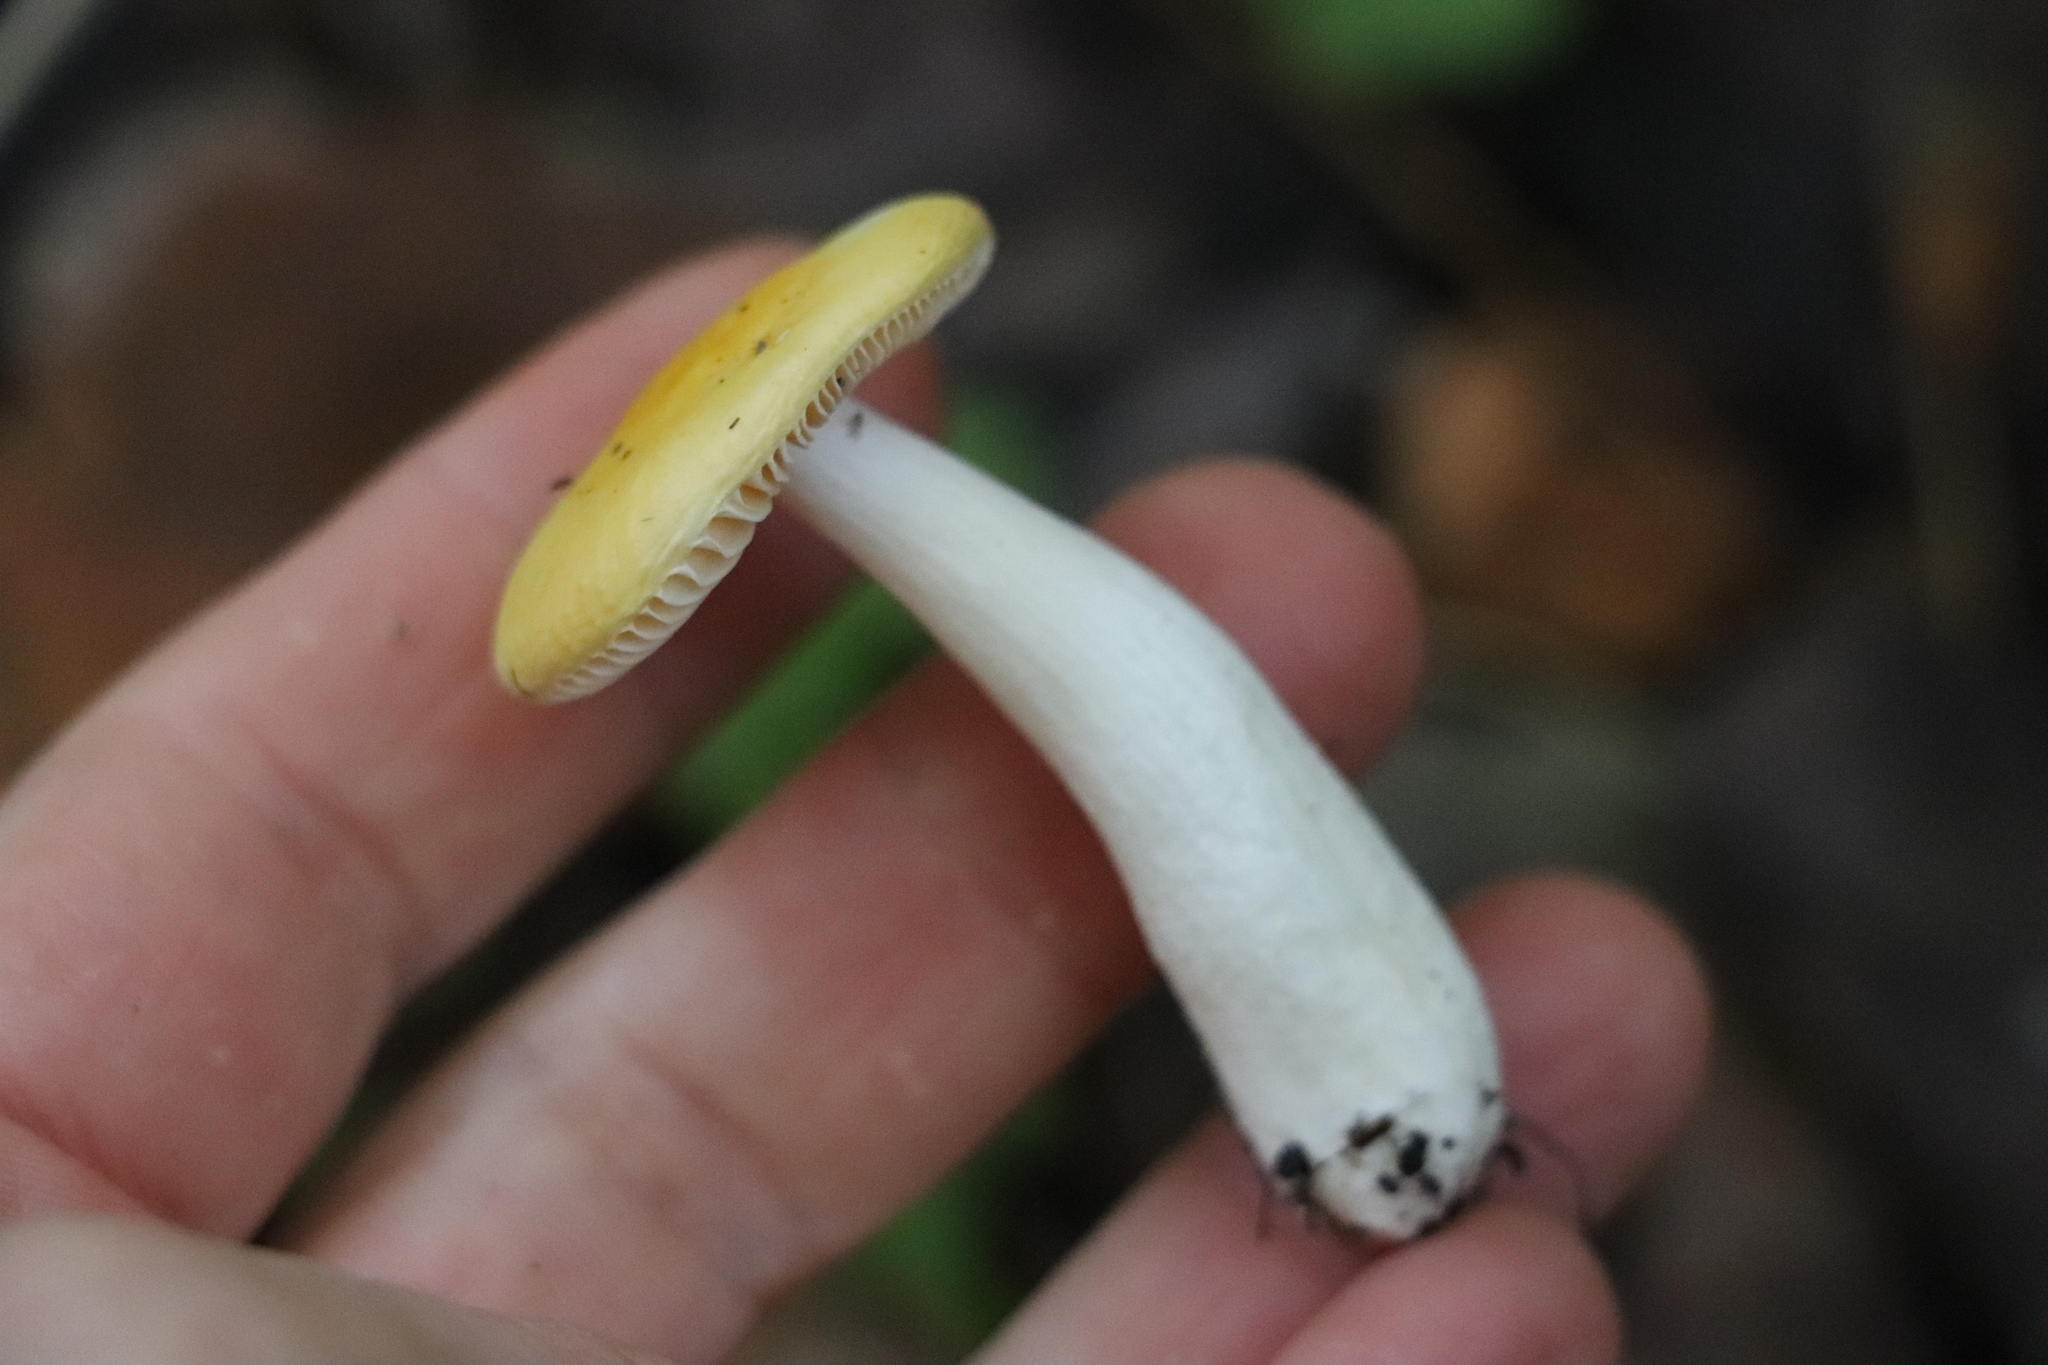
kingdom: Fungi
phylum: Basidiomycota
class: Agaricomycetes
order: Russulales
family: Russulaceae
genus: Russula
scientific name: Russula risigallina
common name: Golden brittlegill
